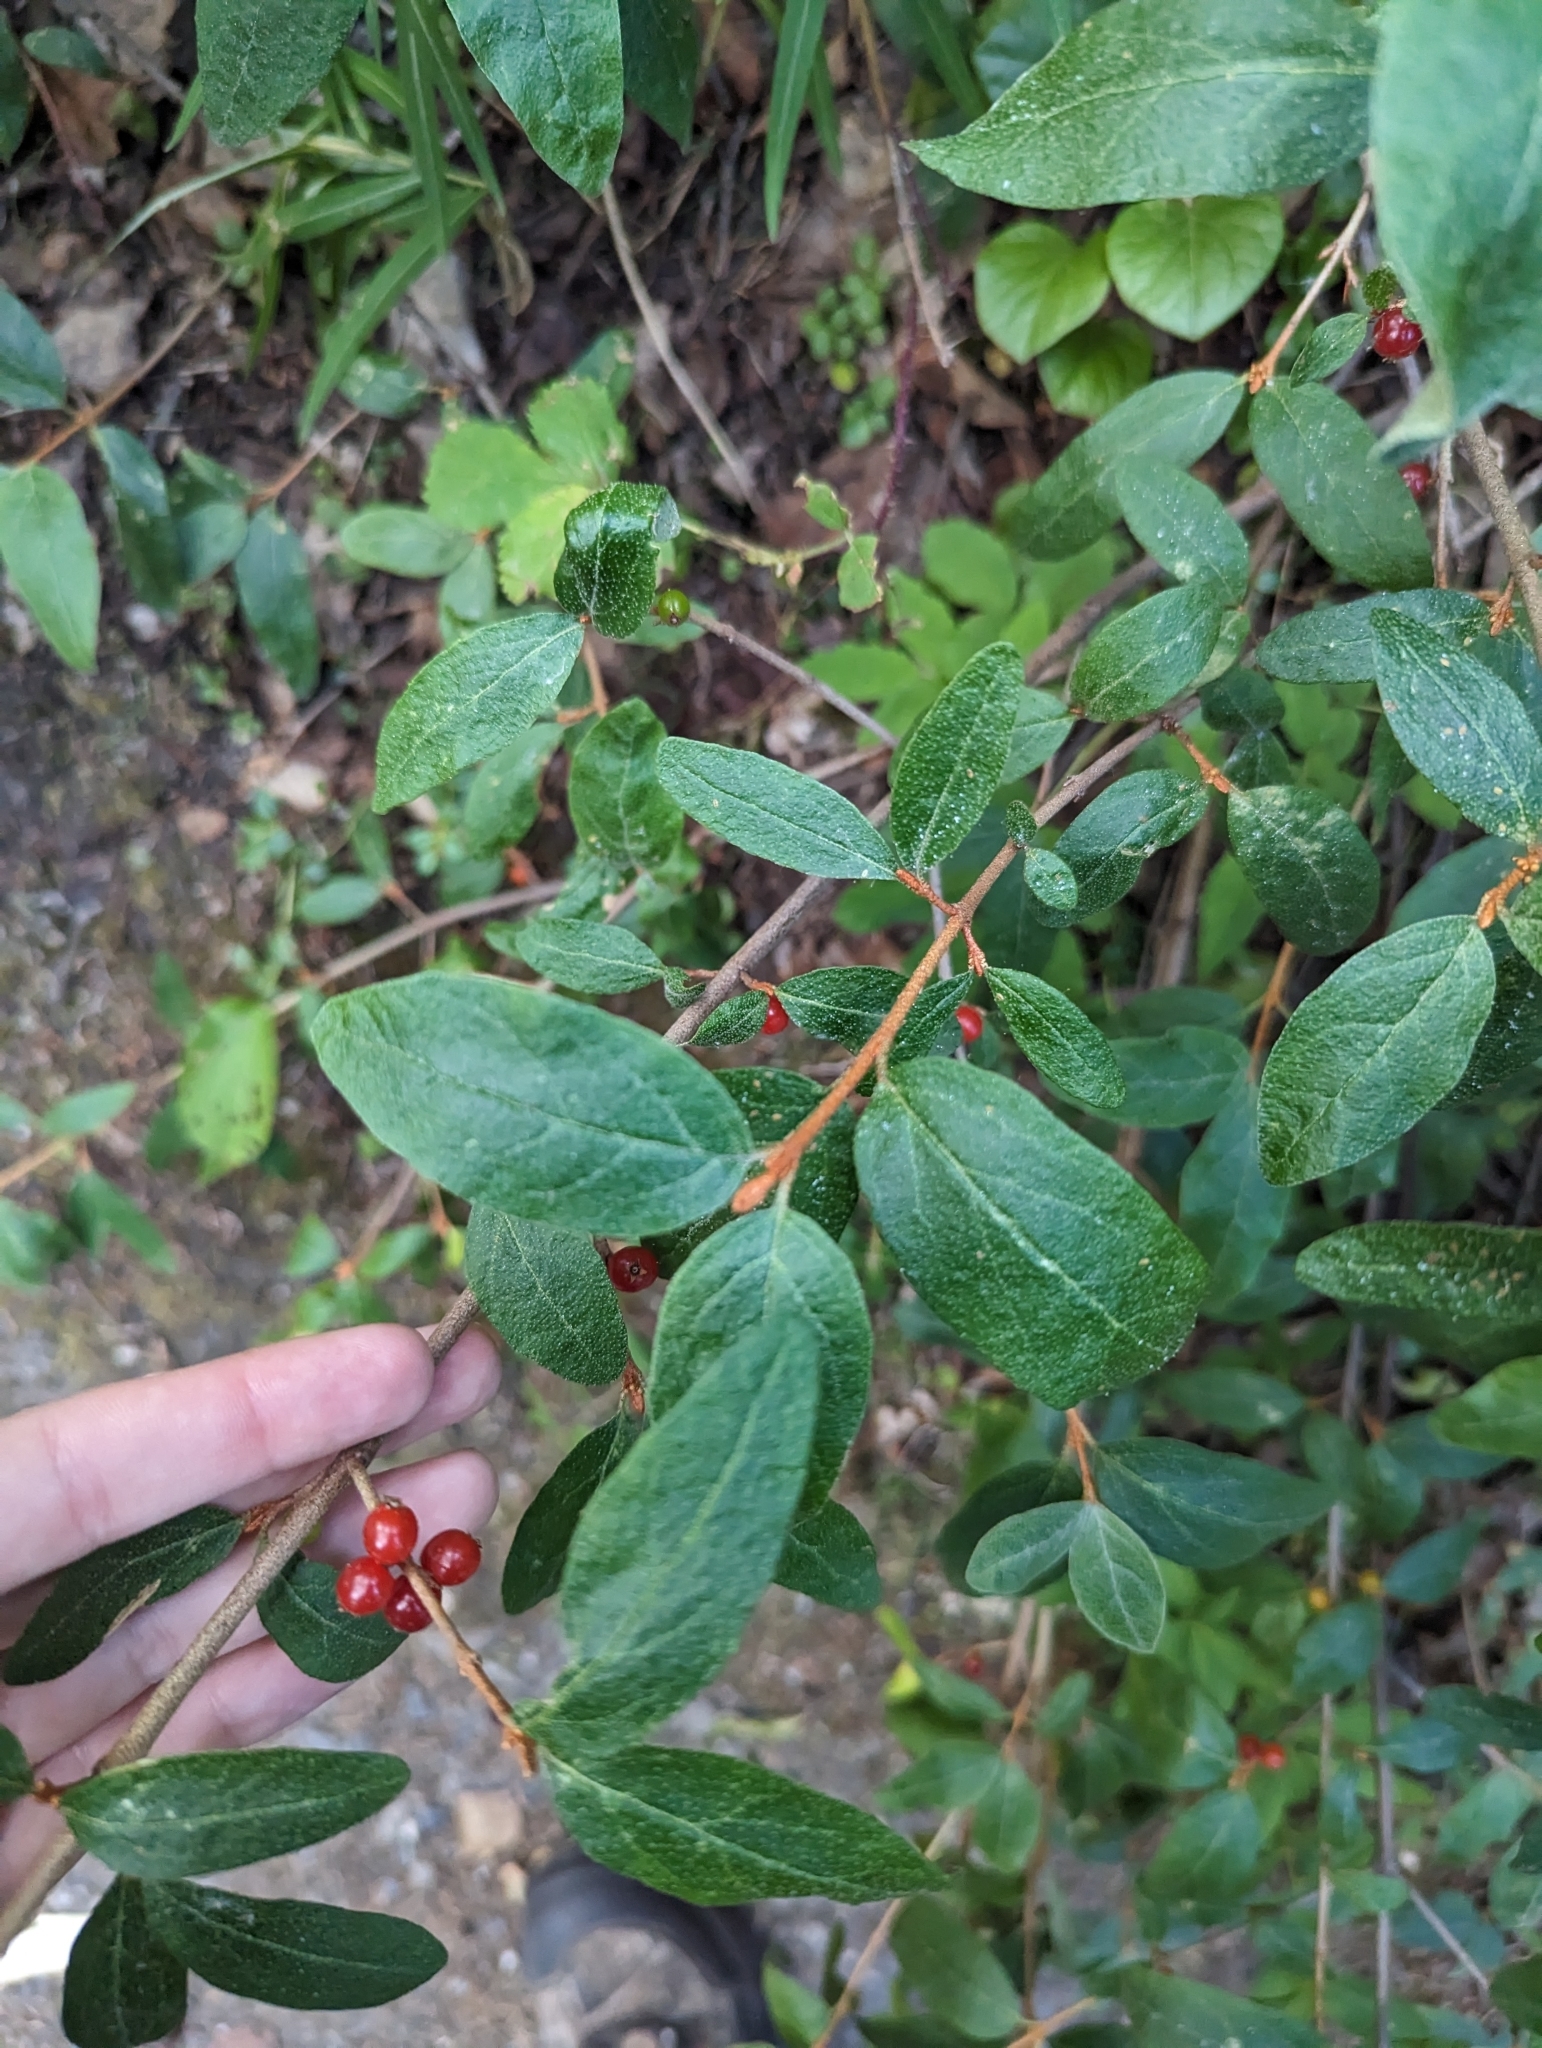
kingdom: Plantae
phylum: Tracheophyta
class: Magnoliopsida
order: Rosales
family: Elaeagnaceae
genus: Shepherdia
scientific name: Shepherdia canadensis
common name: Soapberry
